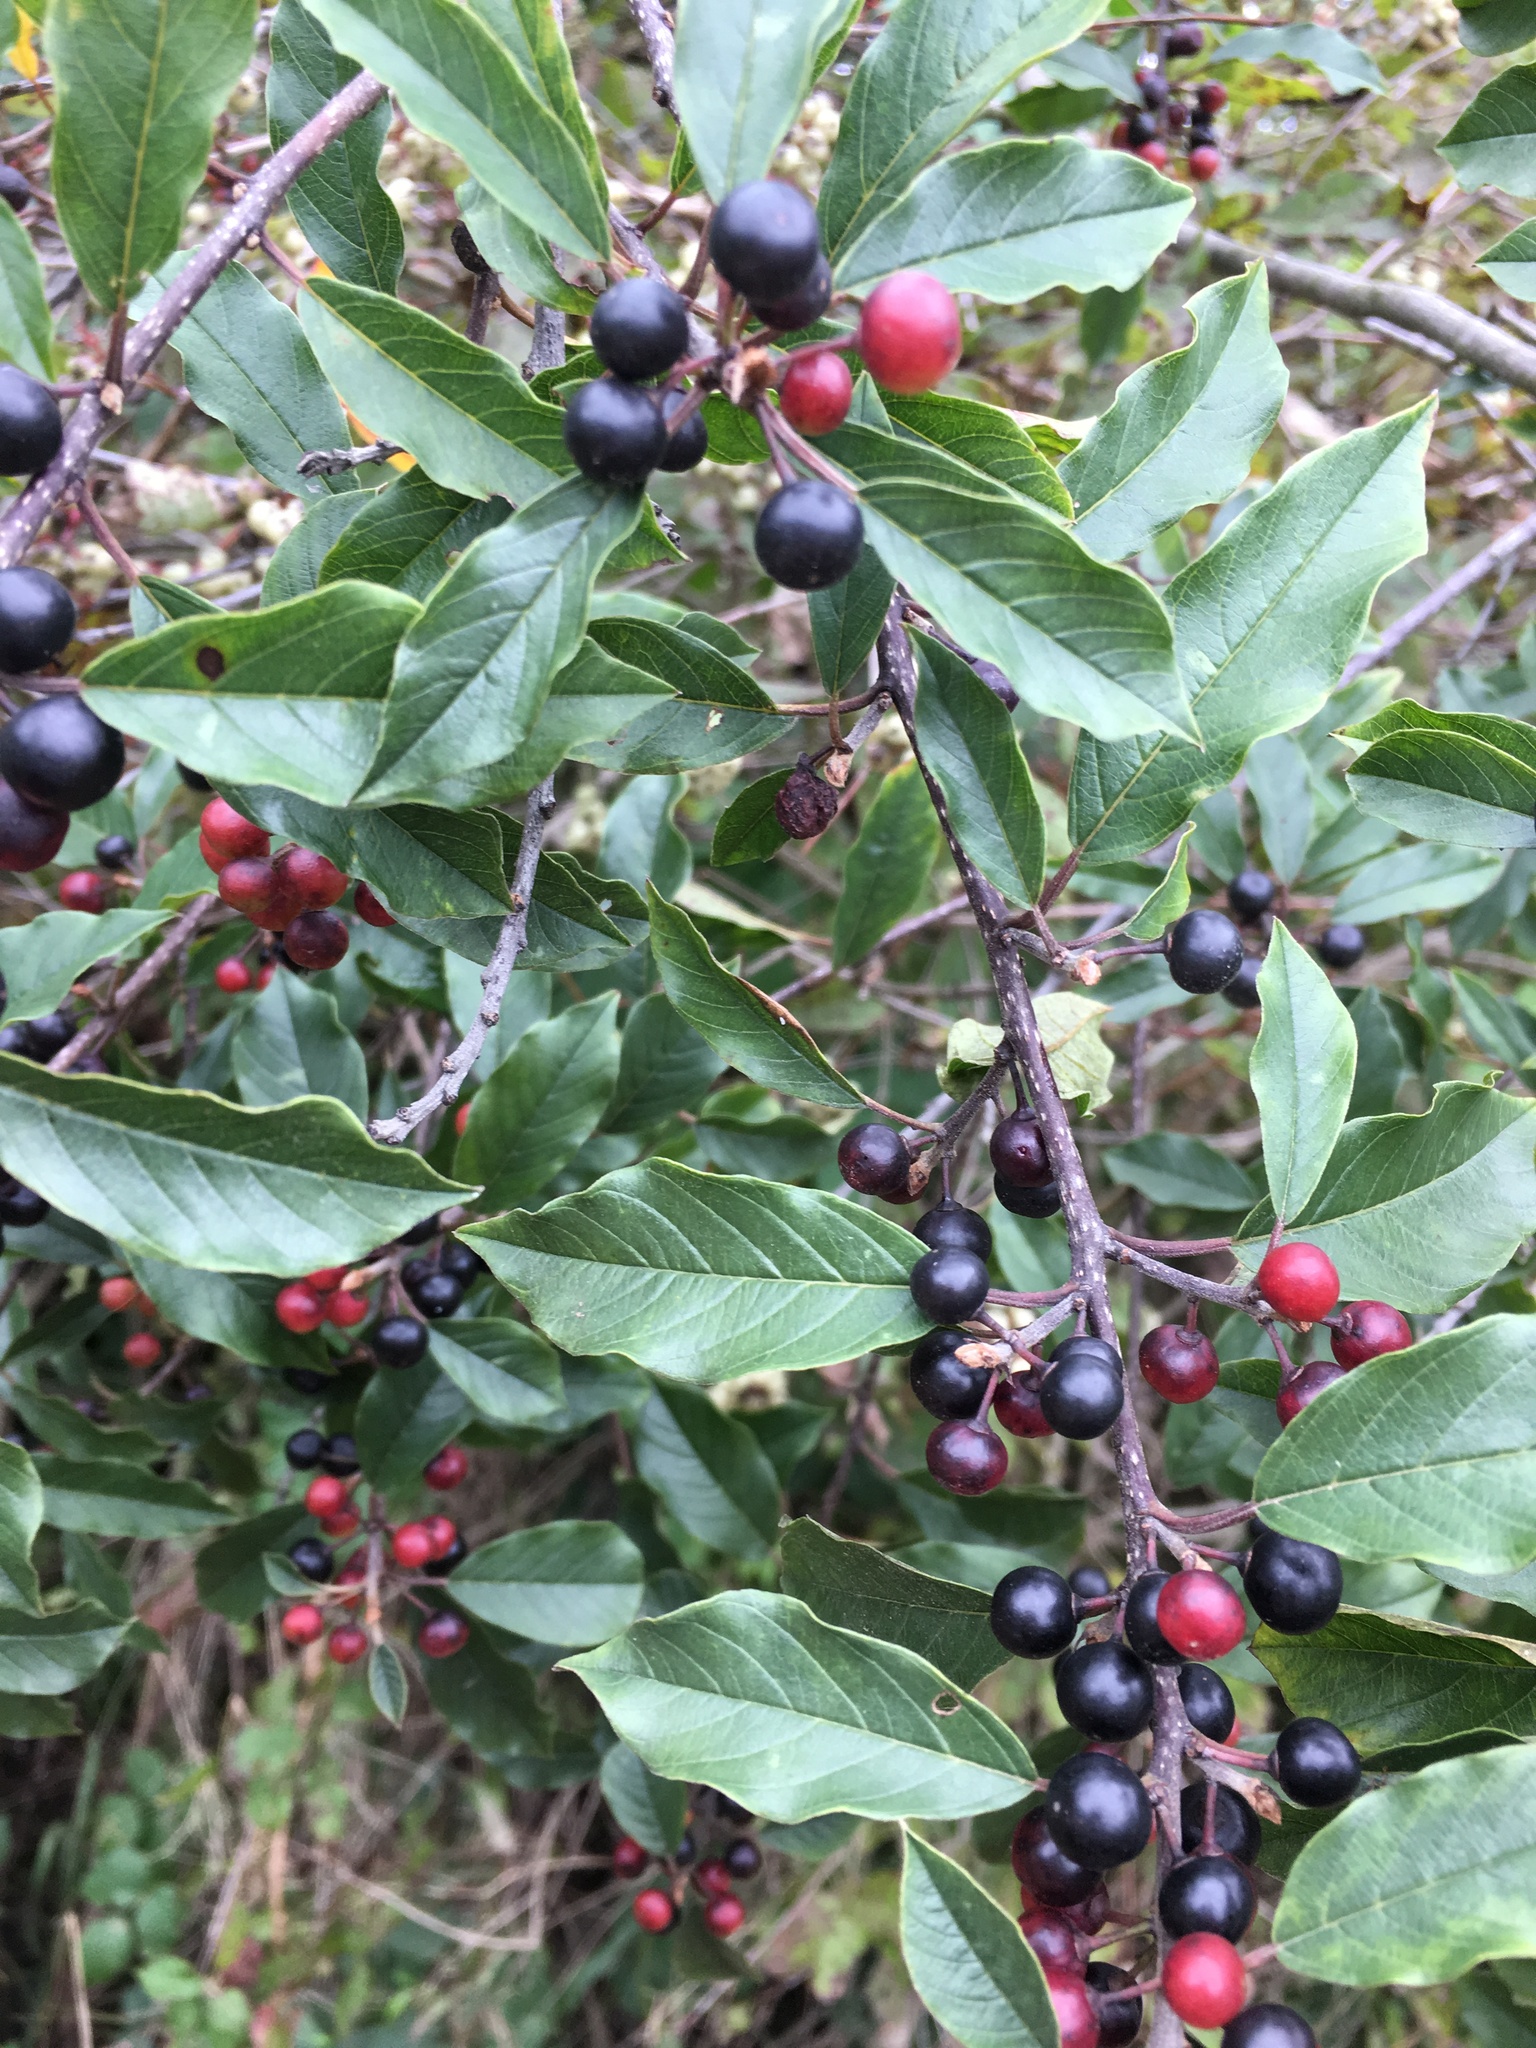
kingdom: Plantae
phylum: Tracheophyta
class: Magnoliopsida
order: Rosales
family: Rhamnaceae
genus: Frangula
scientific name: Frangula alnus
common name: Alder buckthorn
